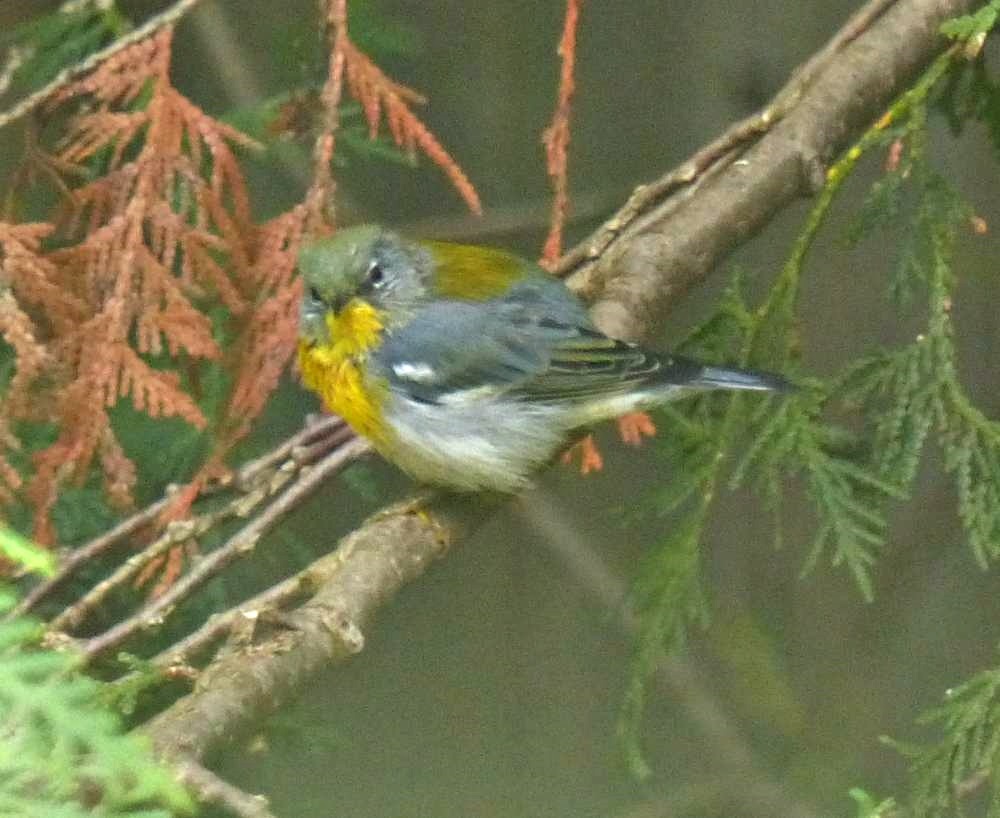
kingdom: Animalia
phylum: Chordata
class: Aves
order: Passeriformes
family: Parulidae
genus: Setophaga
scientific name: Setophaga americana
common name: Northern parula
